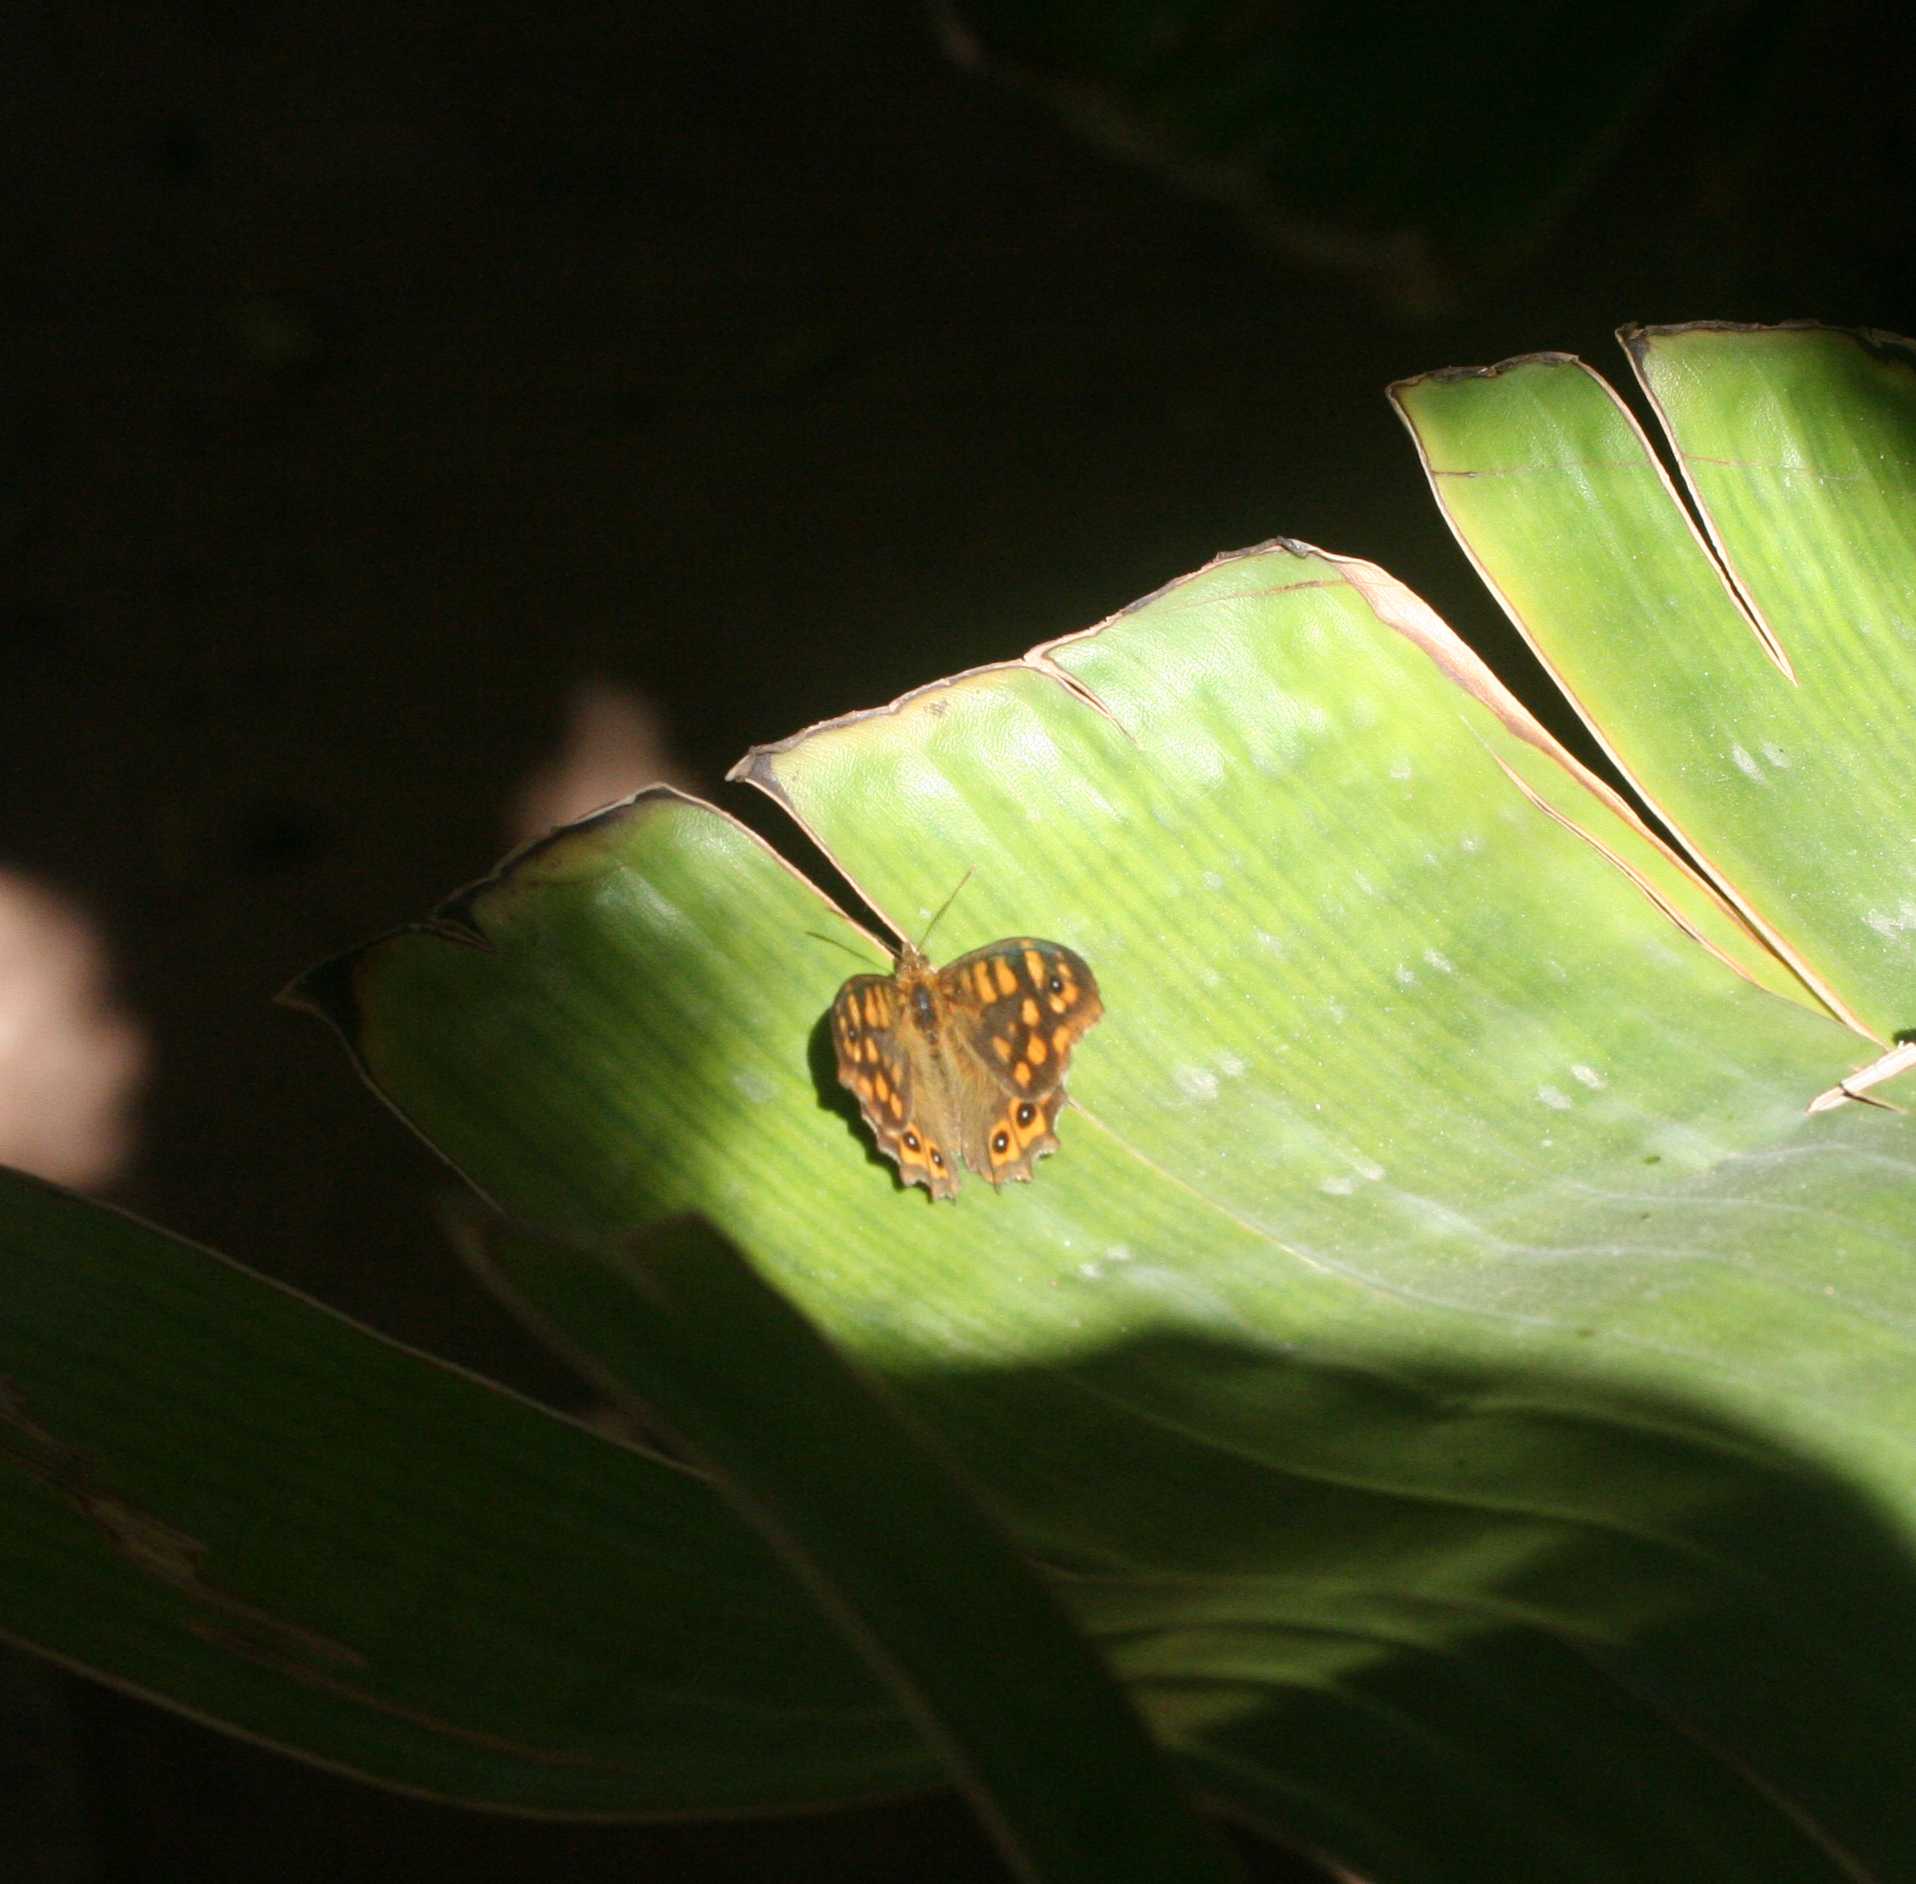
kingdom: Animalia
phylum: Arthropoda
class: Insecta
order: Lepidoptera
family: Nymphalidae
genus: Pararge
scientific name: Pararge aegeria
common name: Speckled wood
